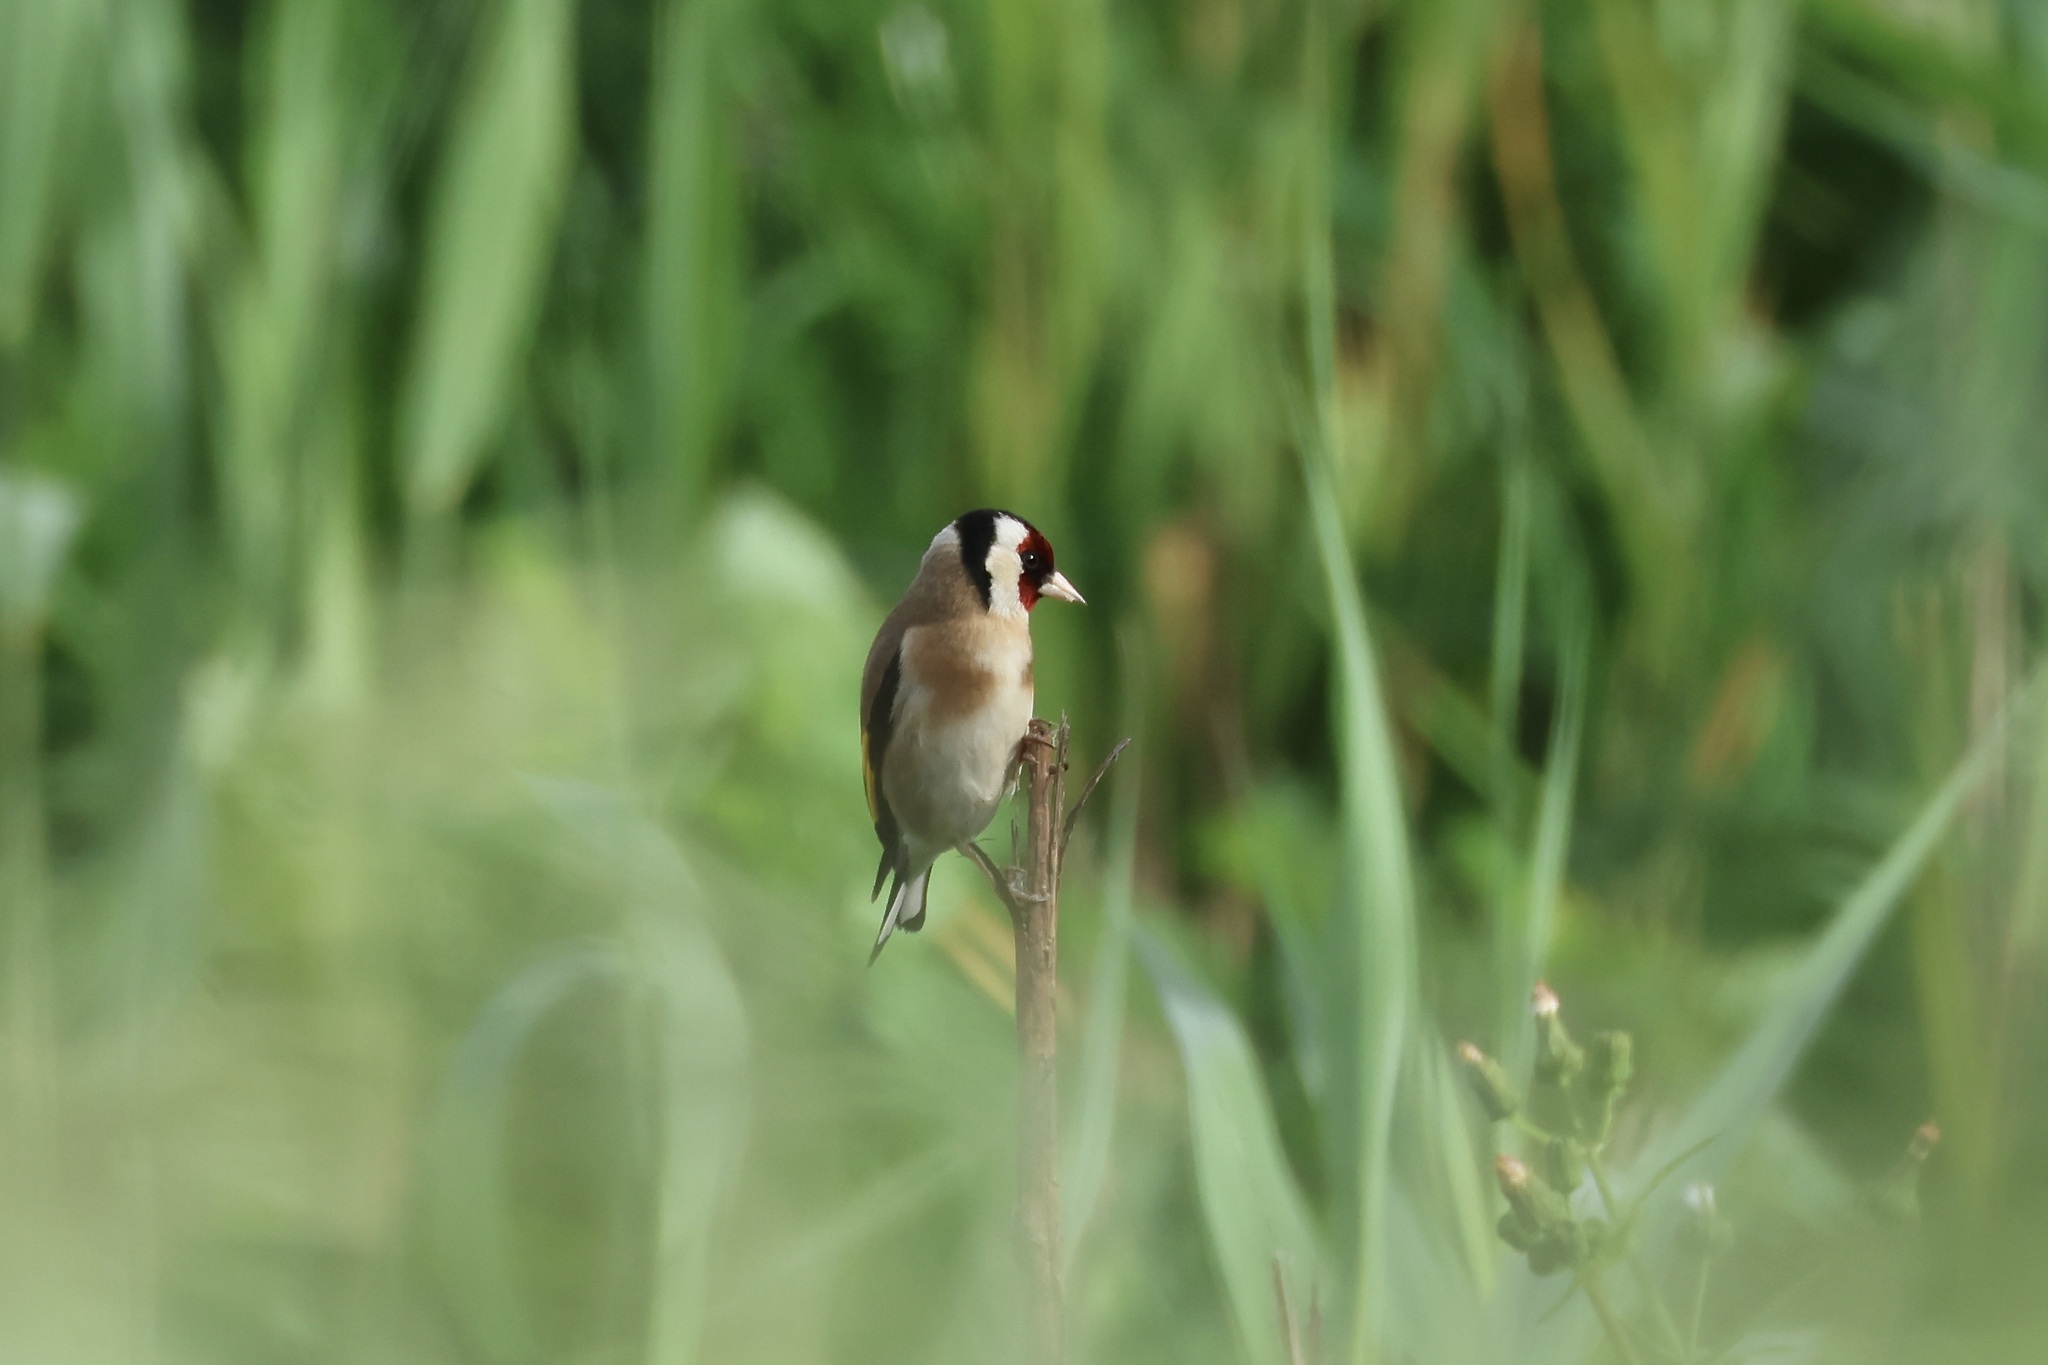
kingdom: Animalia
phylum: Chordata
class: Aves
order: Passeriformes
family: Fringillidae
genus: Carduelis
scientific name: Carduelis carduelis
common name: European goldfinch
